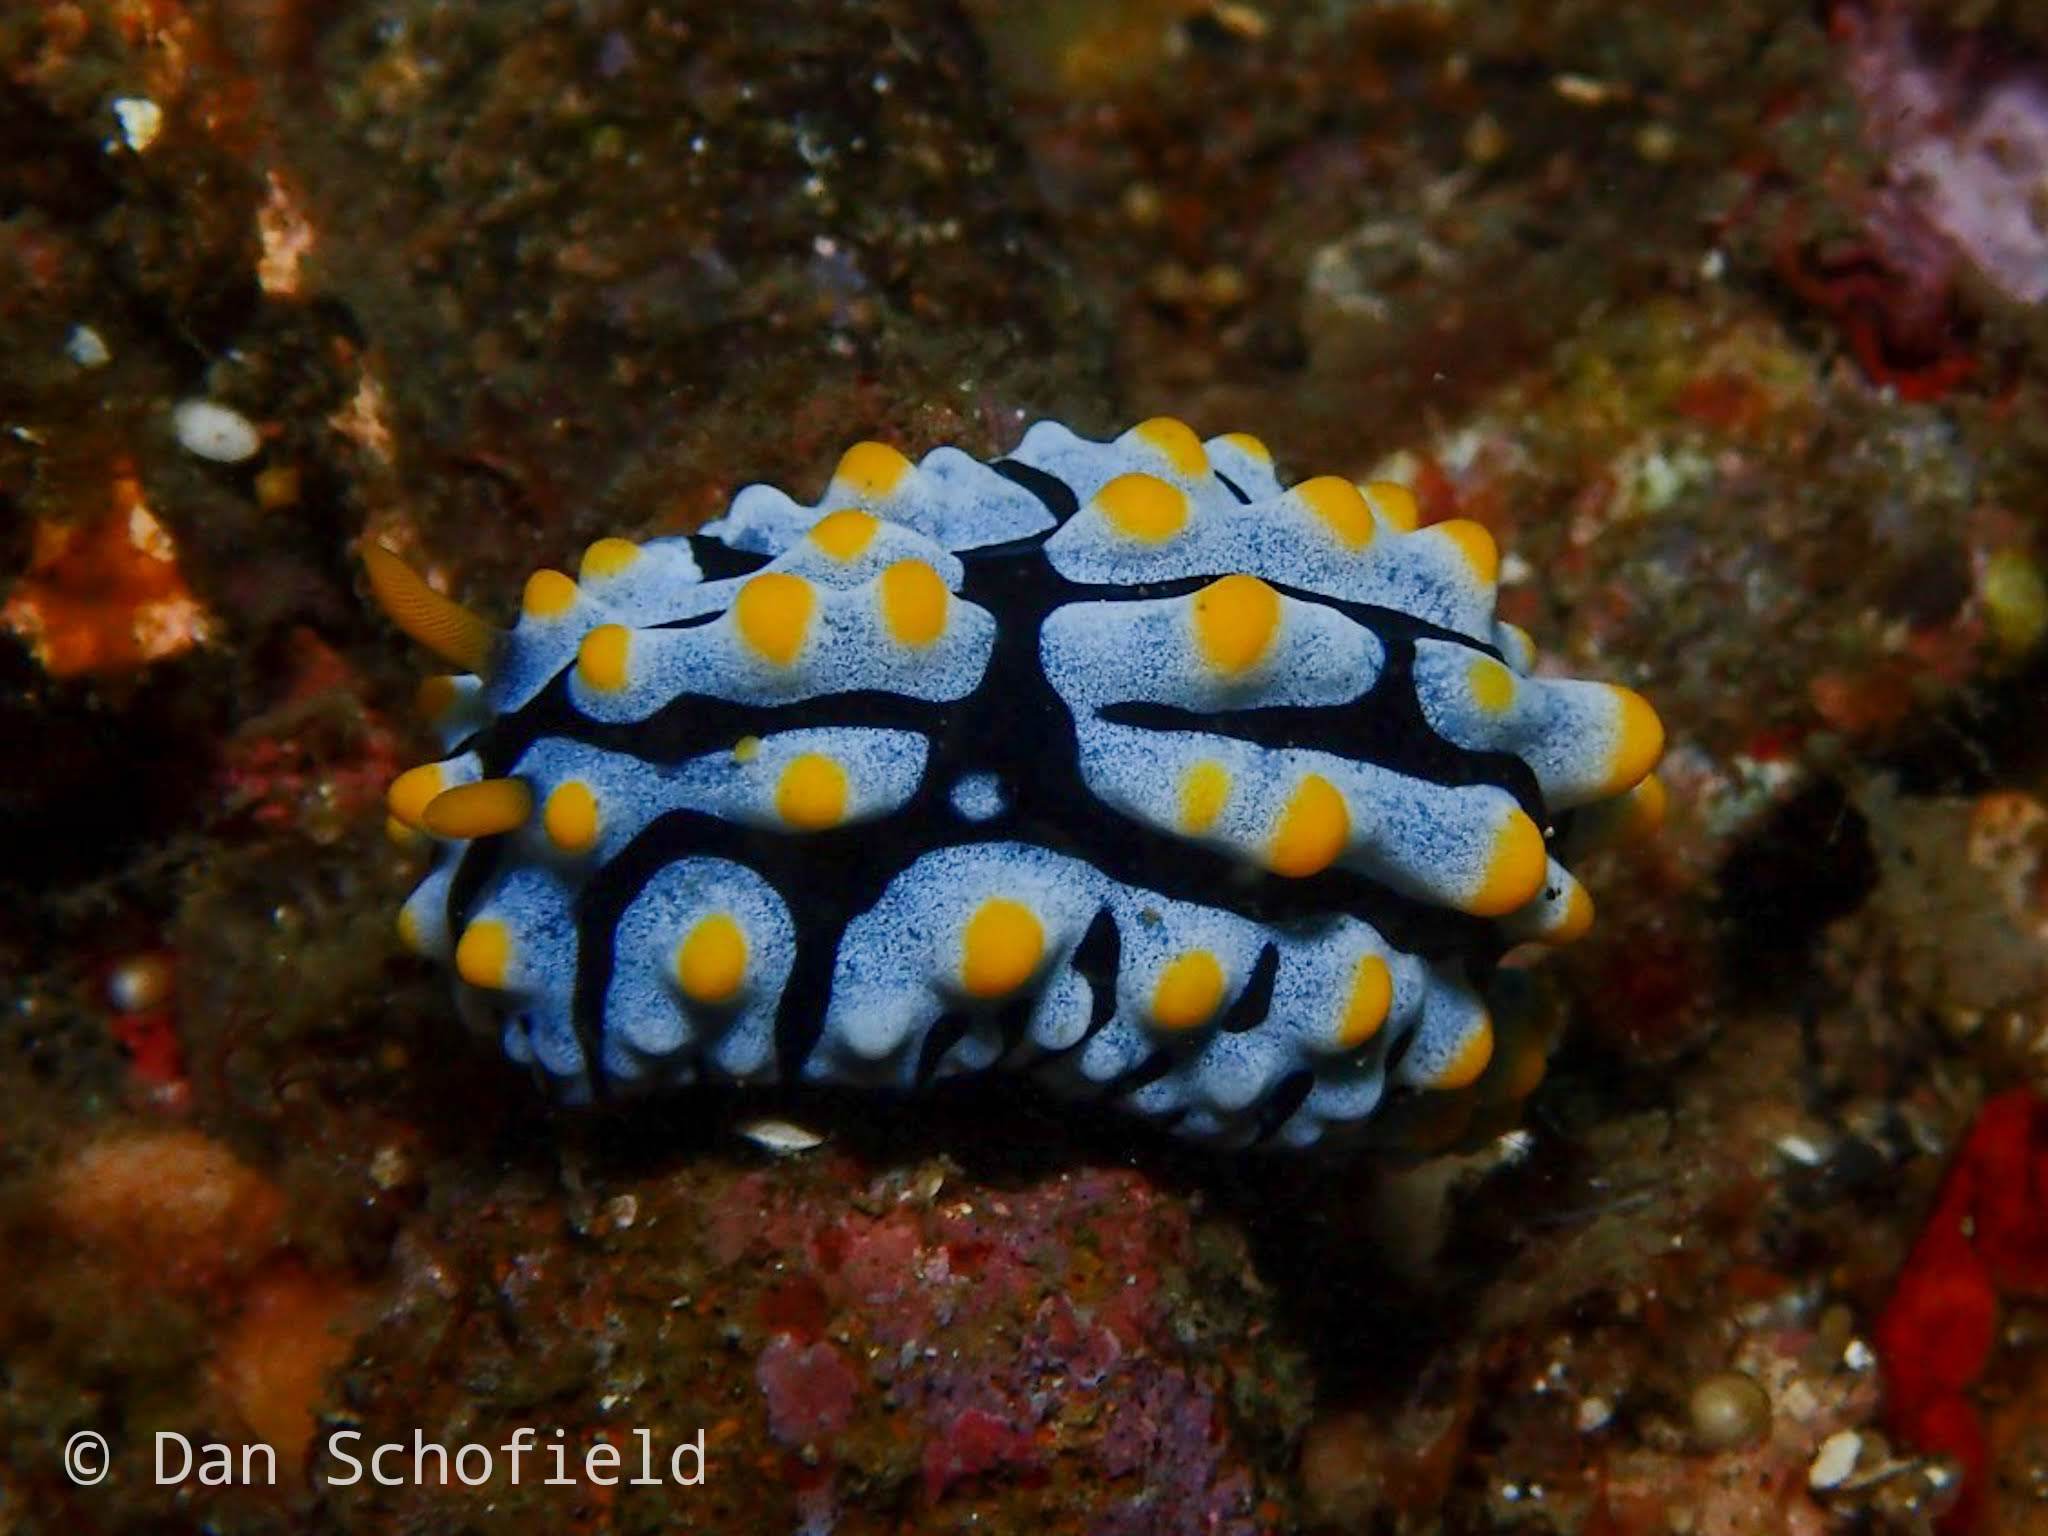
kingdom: Animalia
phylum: Mollusca
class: Gastropoda
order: Nudibranchia
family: Phyllidiidae
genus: Phyllidia
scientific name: Phyllidia varicosa
